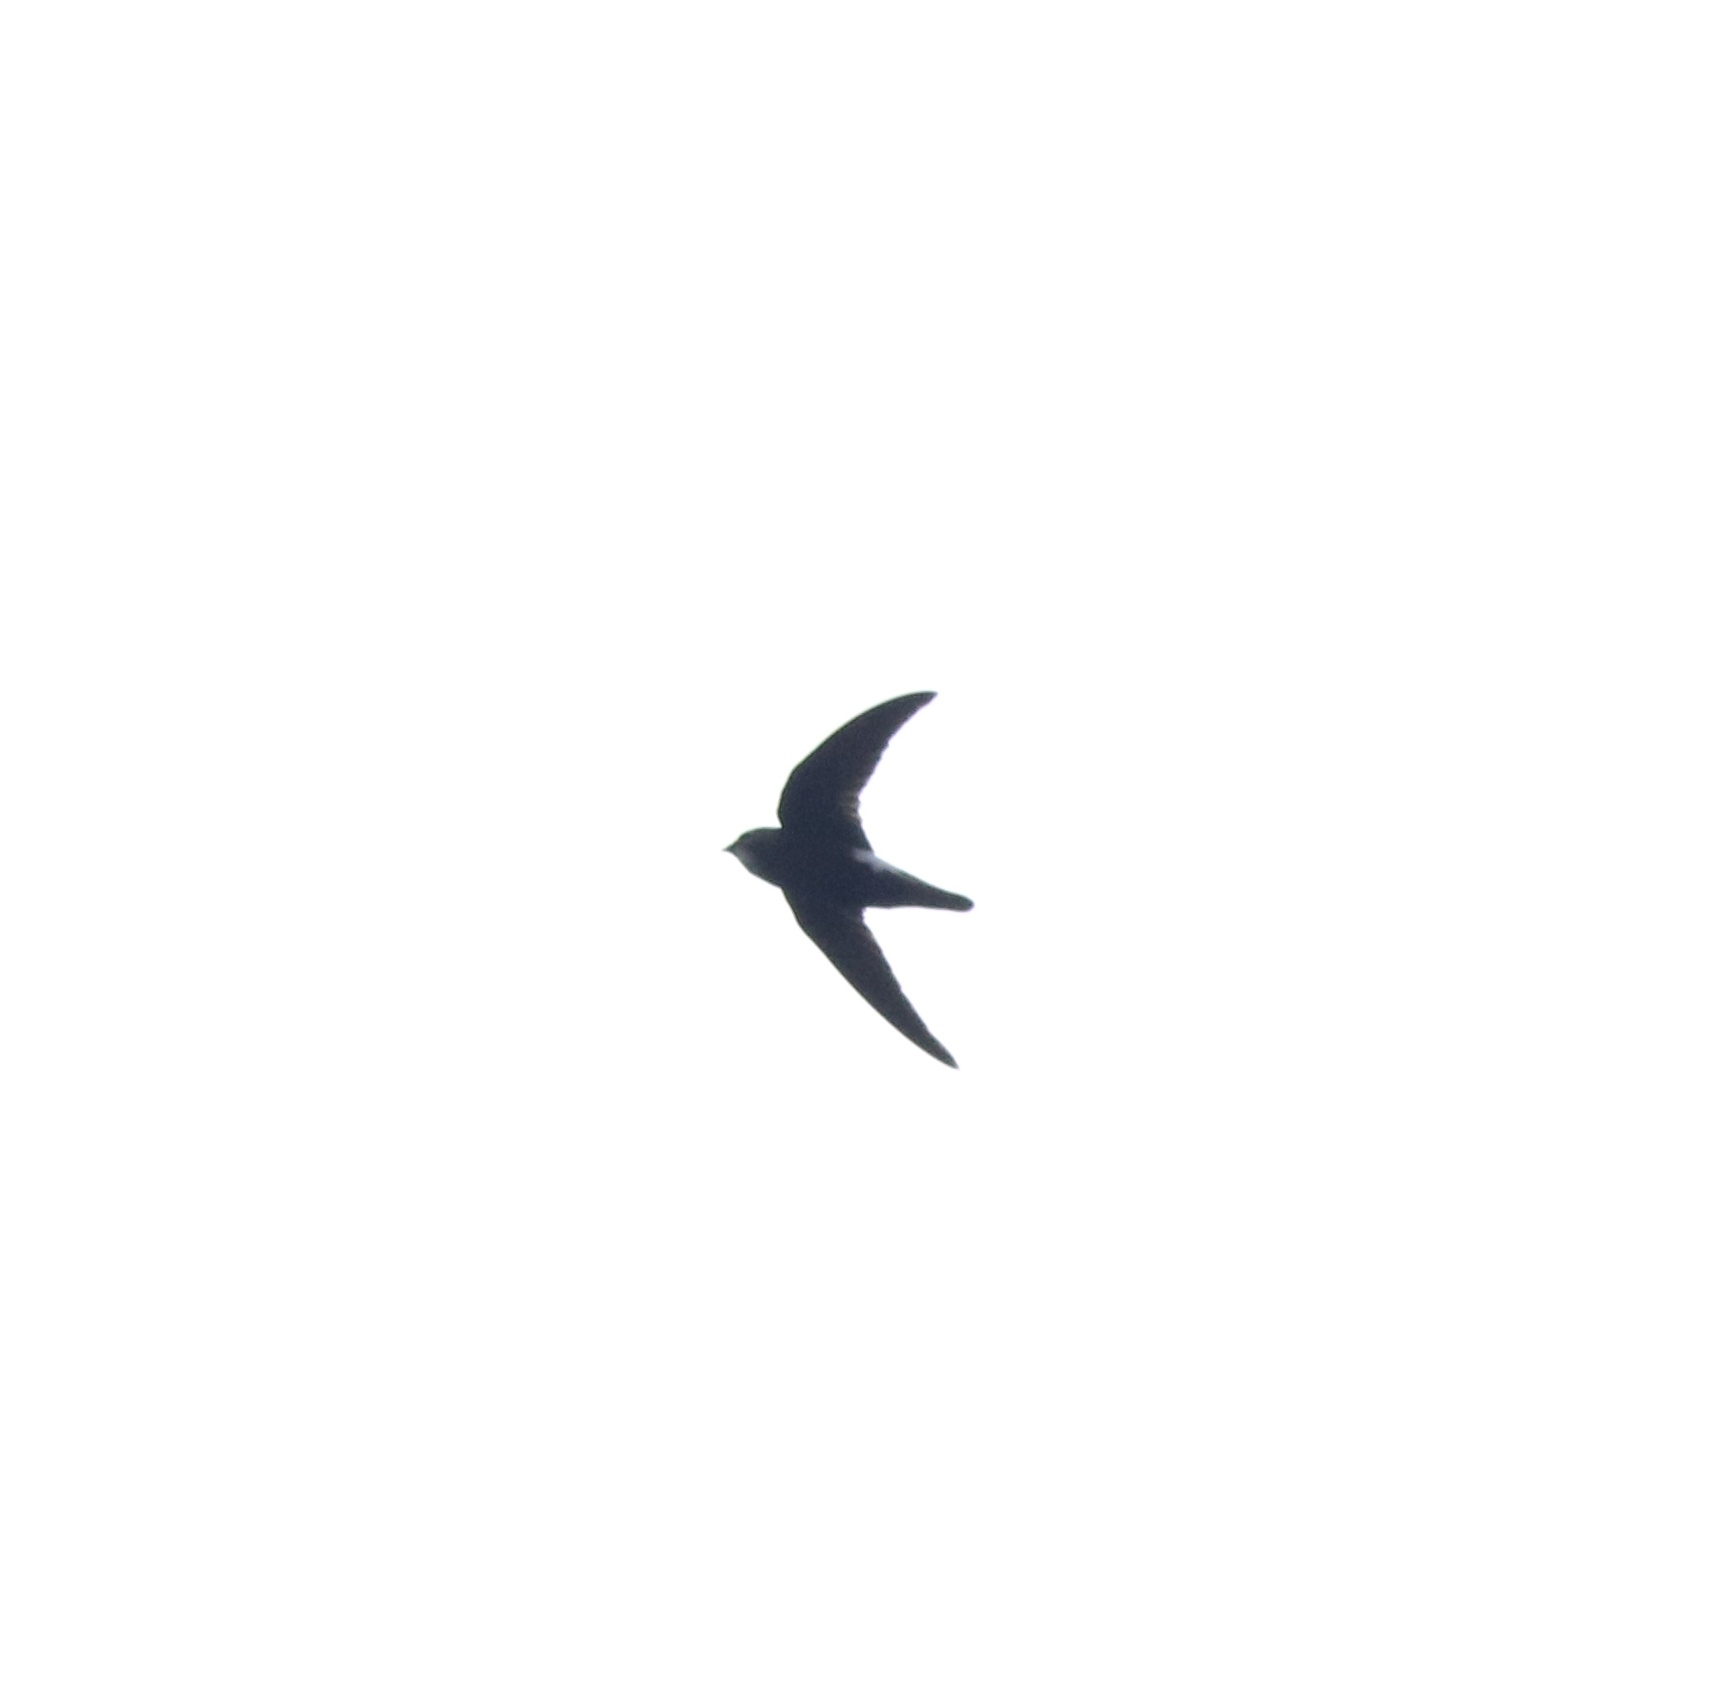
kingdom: Animalia
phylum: Chordata
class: Aves
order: Apodiformes
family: Apodidae
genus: Apus
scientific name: Apus affinis
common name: Little swift
